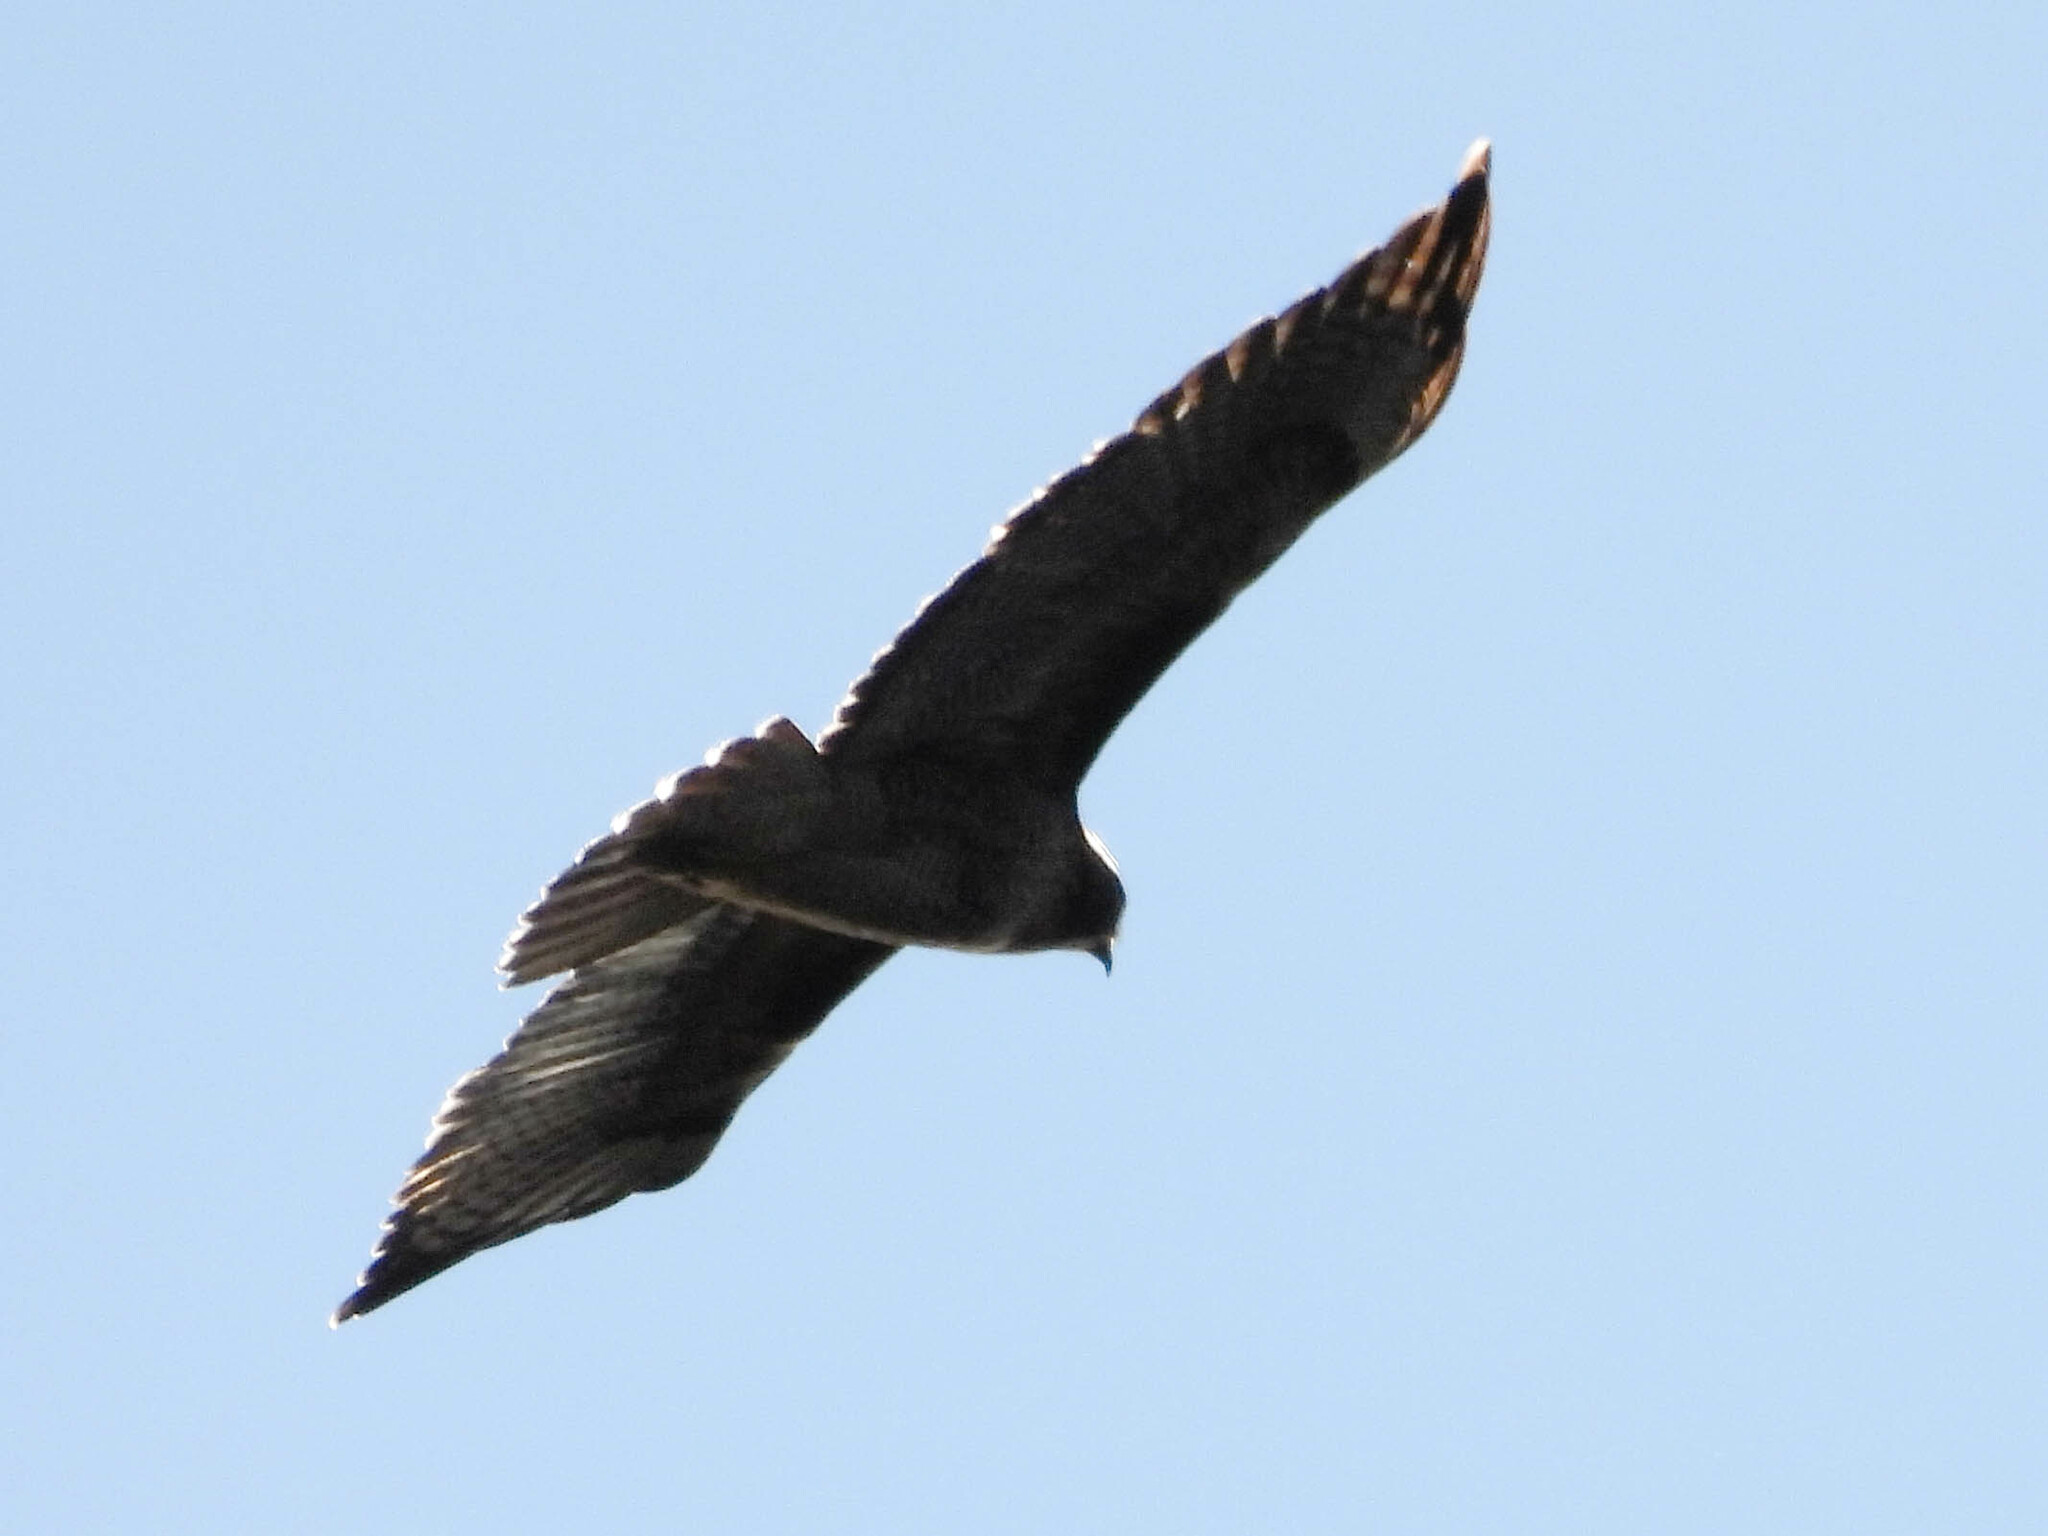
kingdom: Animalia
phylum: Chordata
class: Aves
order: Accipitriformes
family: Accipitridae
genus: Buteo
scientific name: Buteo jamaicensis
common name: Red-tailed hawk
